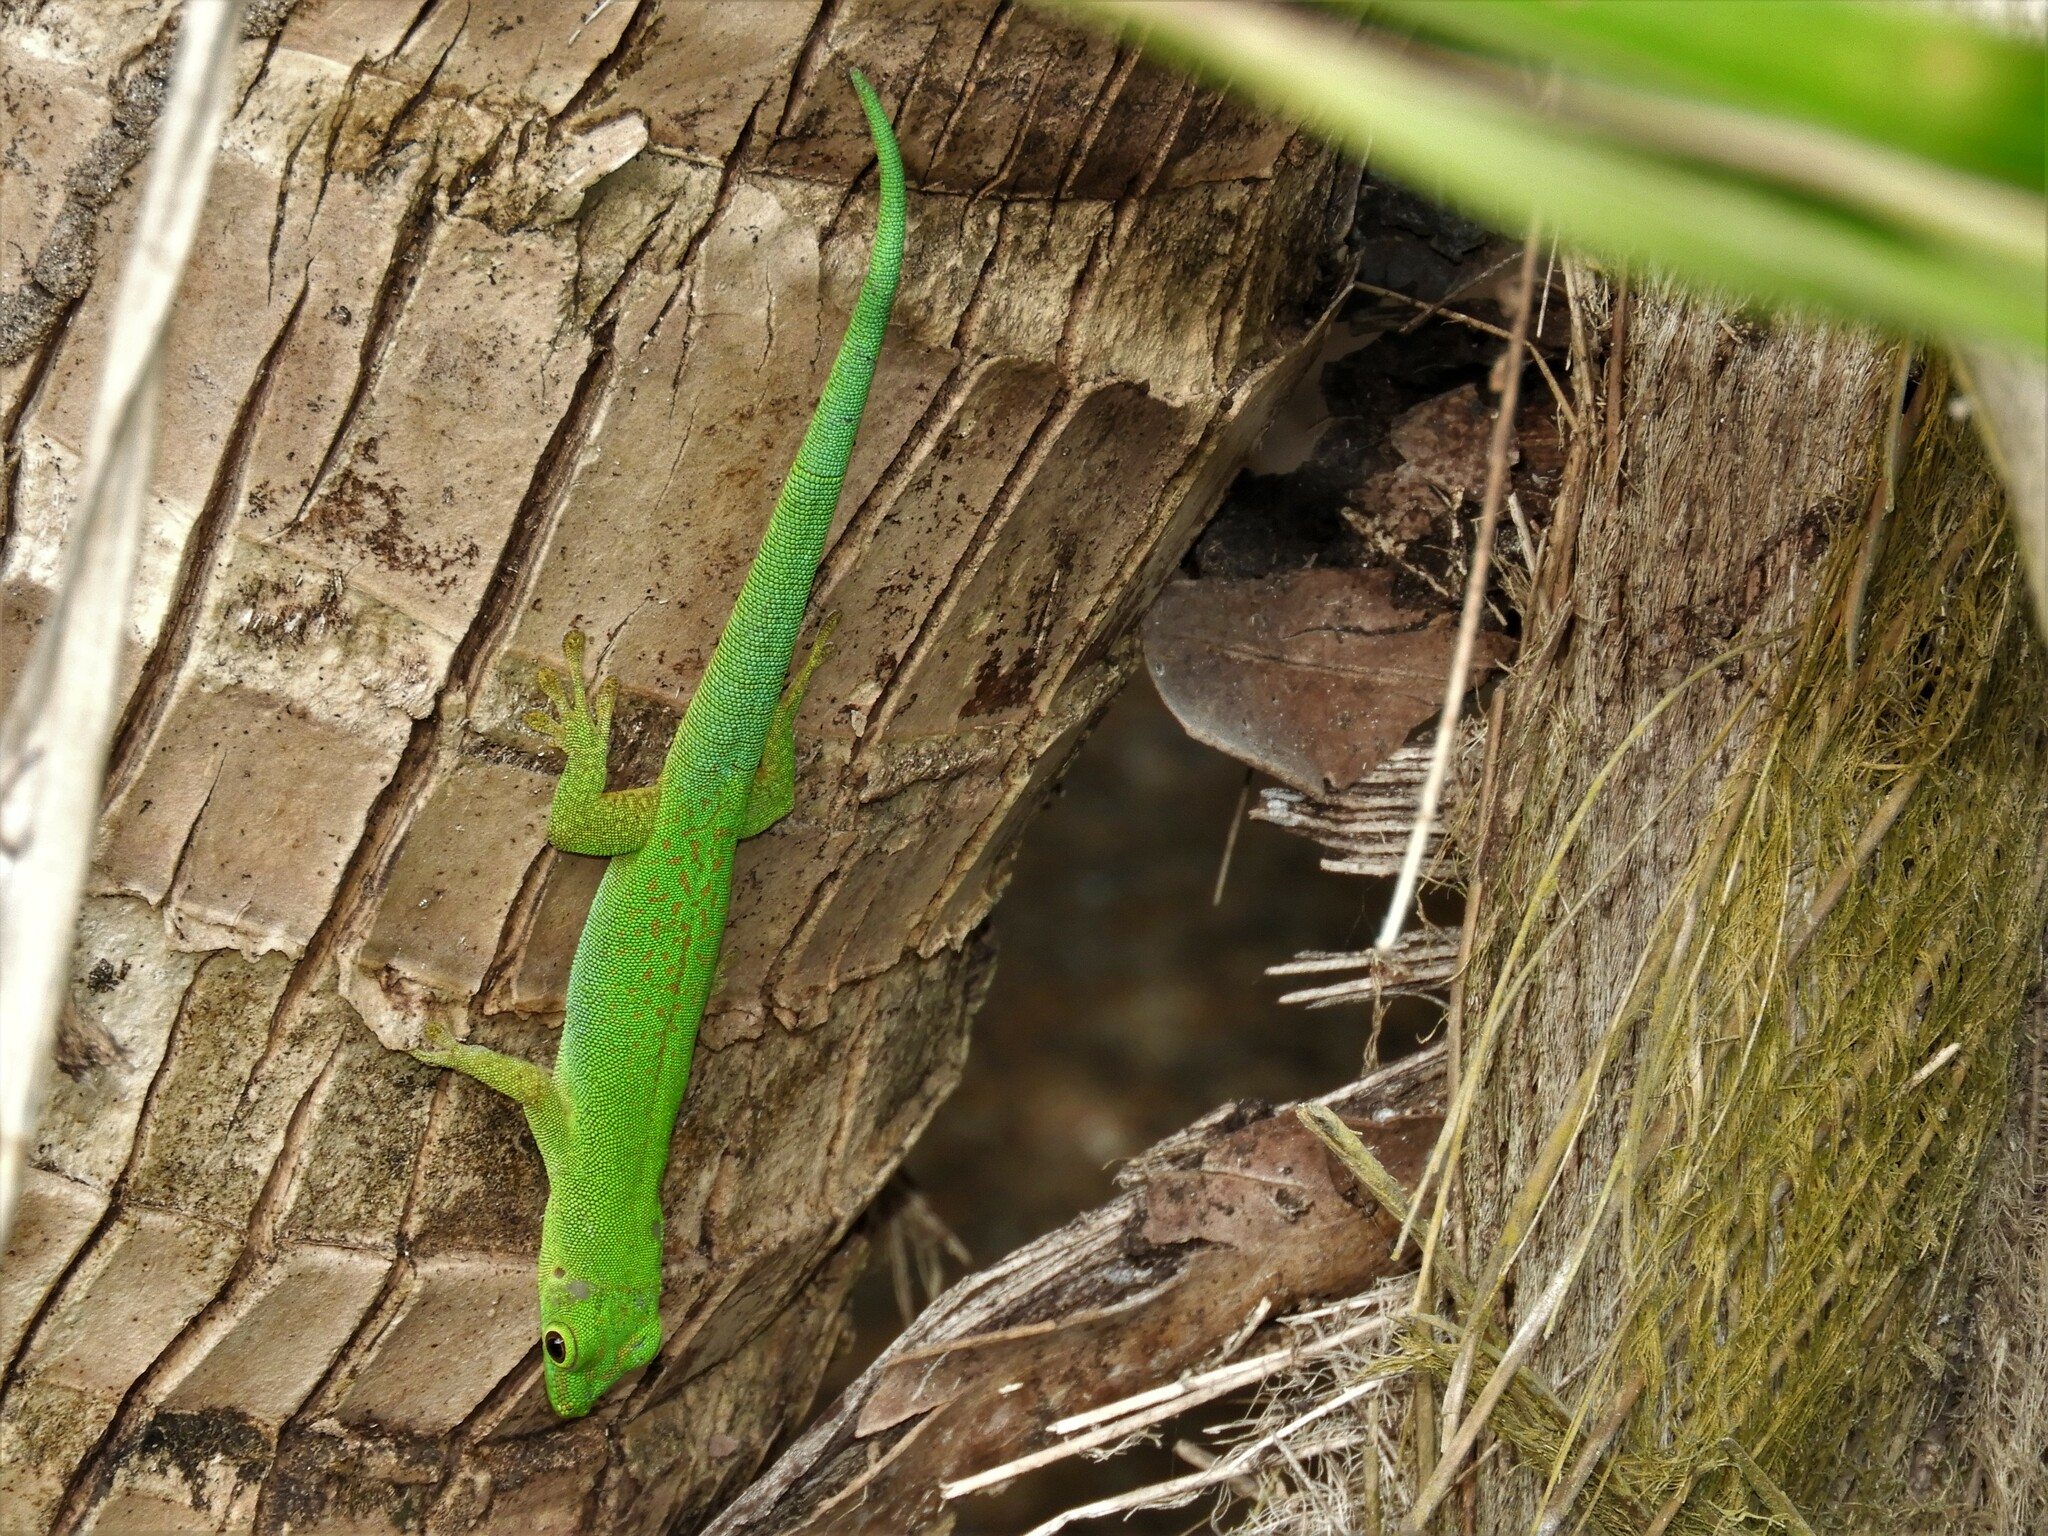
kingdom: Animalia
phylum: Chordata
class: Squamata
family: Gekkonidae
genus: Phelsuma
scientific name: Phelsuma sundbergi
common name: Seychelles giant day gecko
